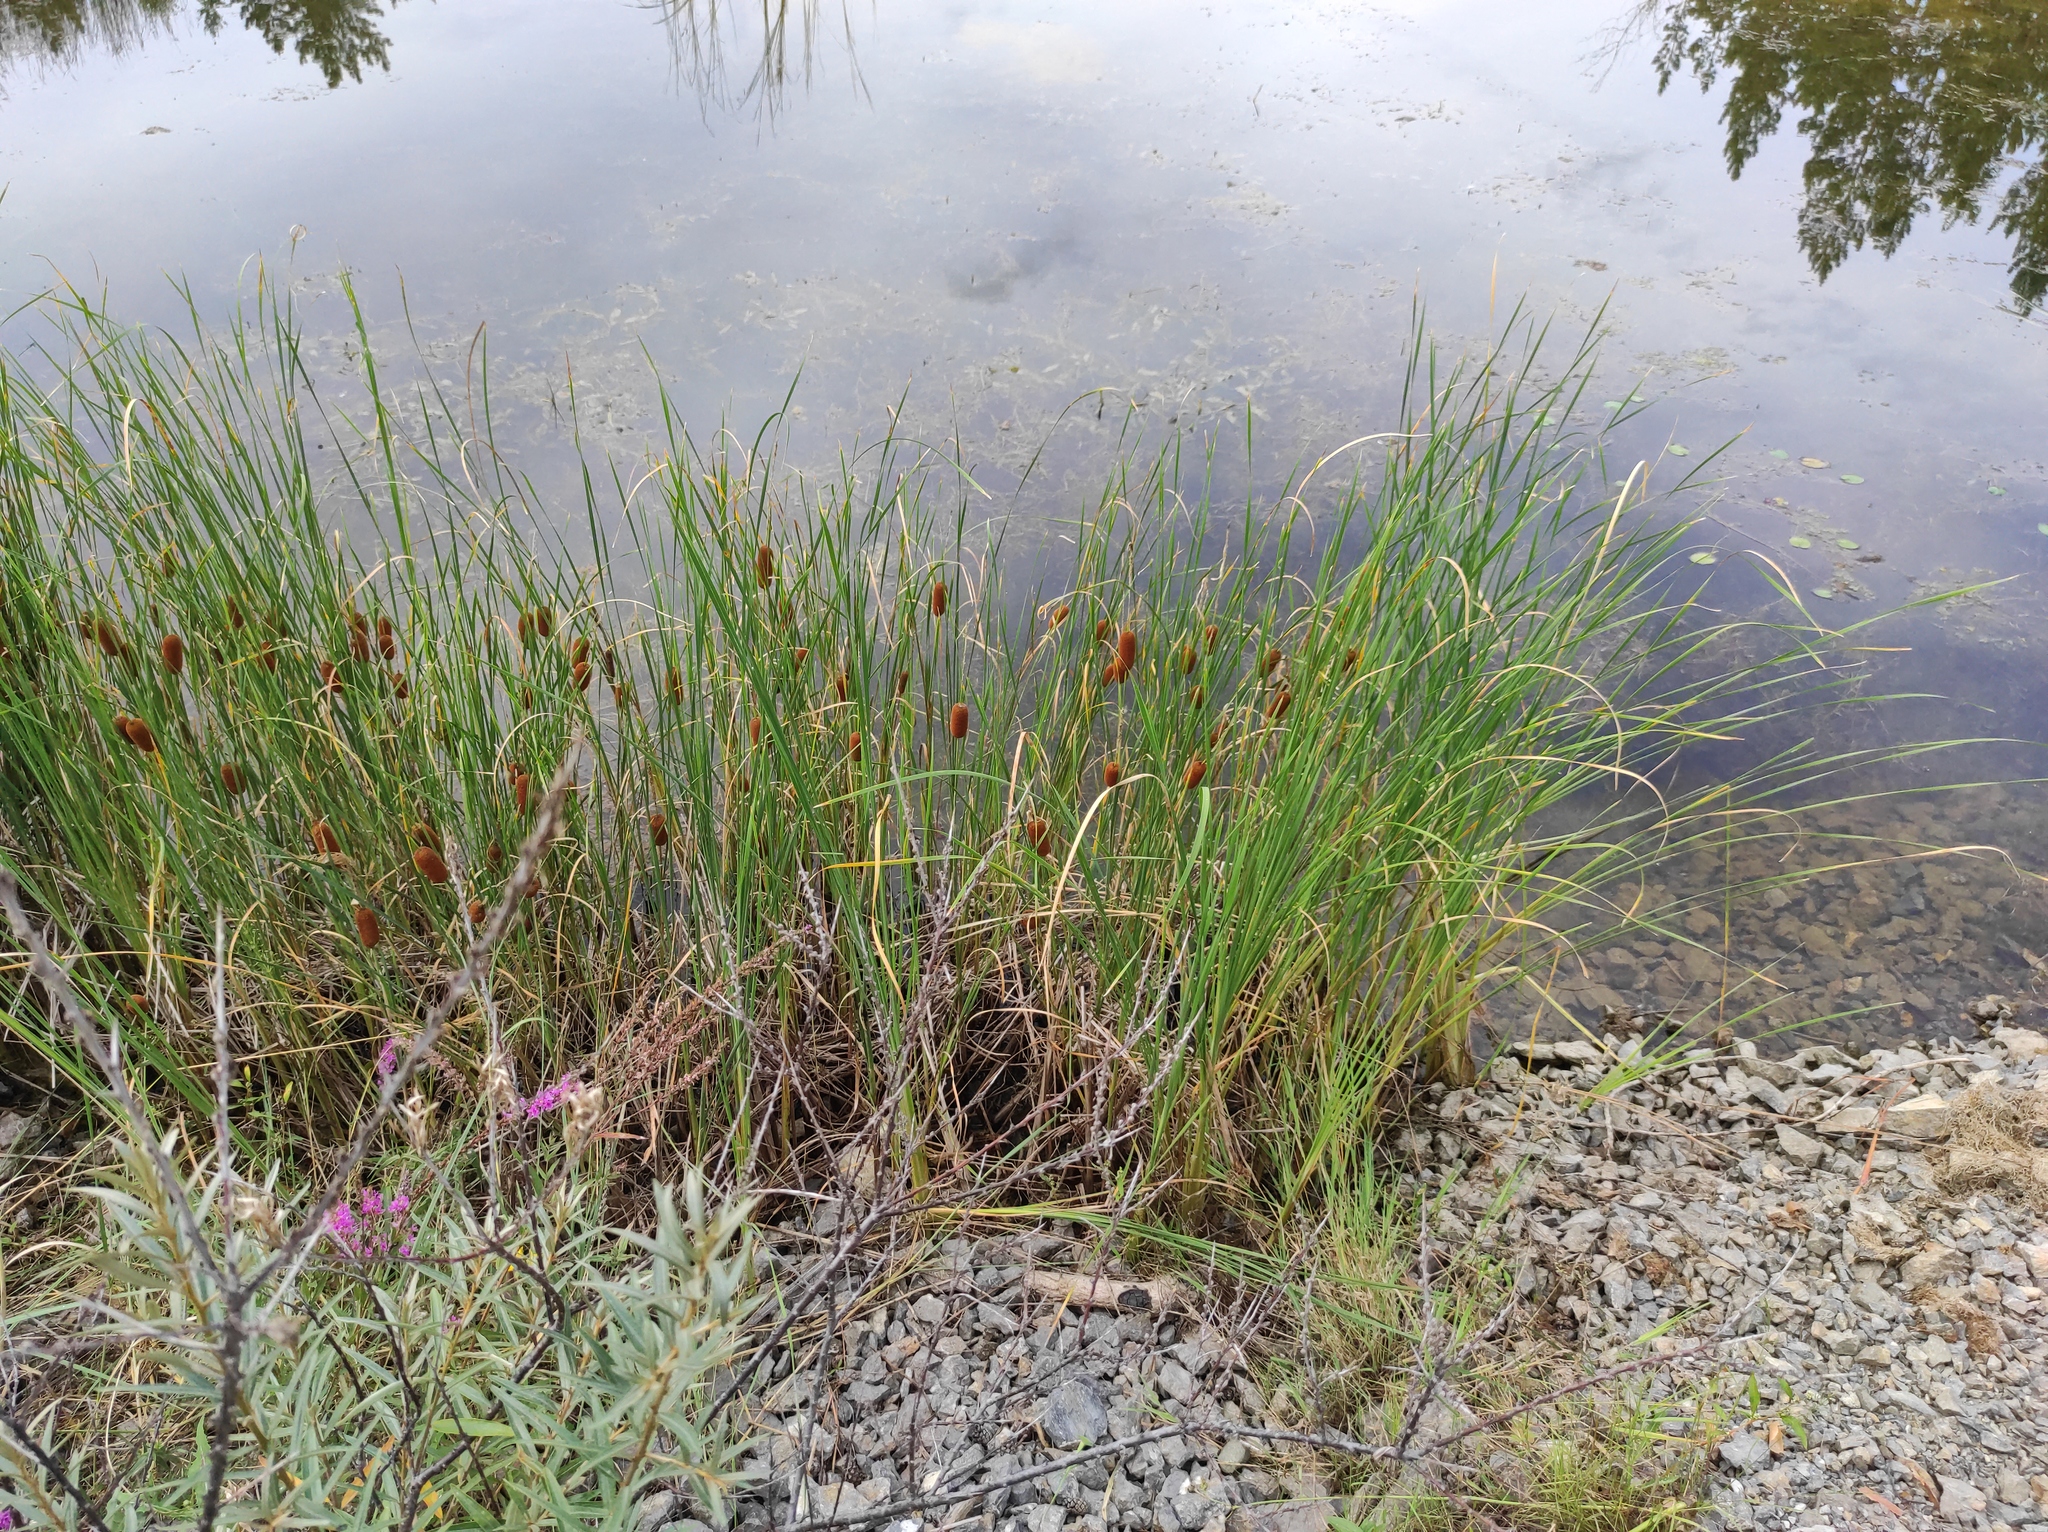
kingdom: Plantae
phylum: Tracheophyta
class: Liliopsida
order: Poales
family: Typhaceae
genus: Typha
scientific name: Typha laxmannii
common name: Laxman’s bulrush
